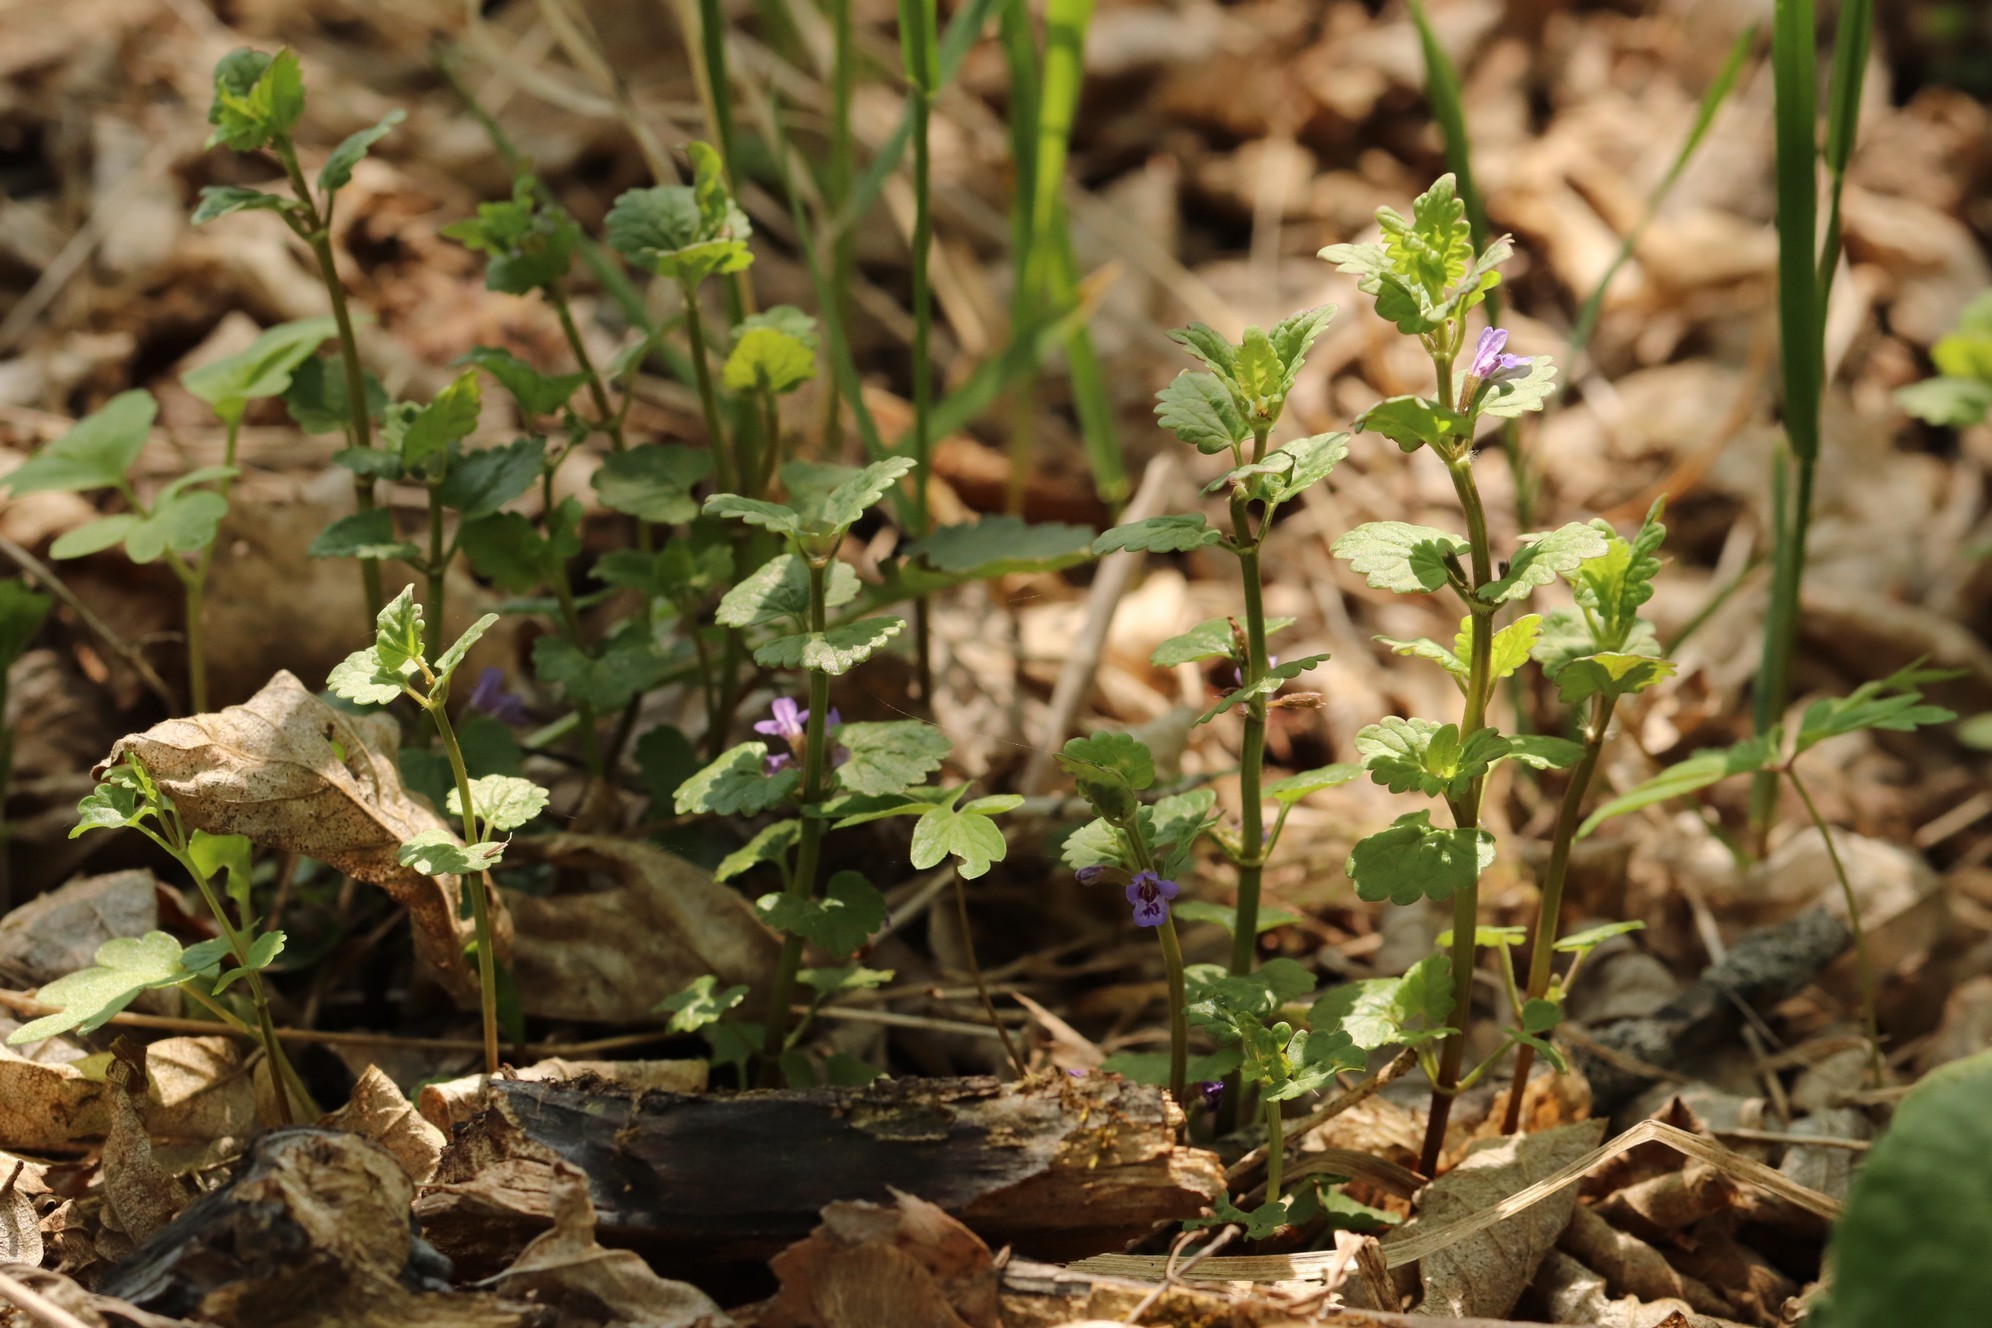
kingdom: Plantae
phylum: Tracheophyta
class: Magnoliopsida
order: Lamiales
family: Lamiaceae
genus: Glechoma
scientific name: Glechoma hederacea
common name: Ground ivy
